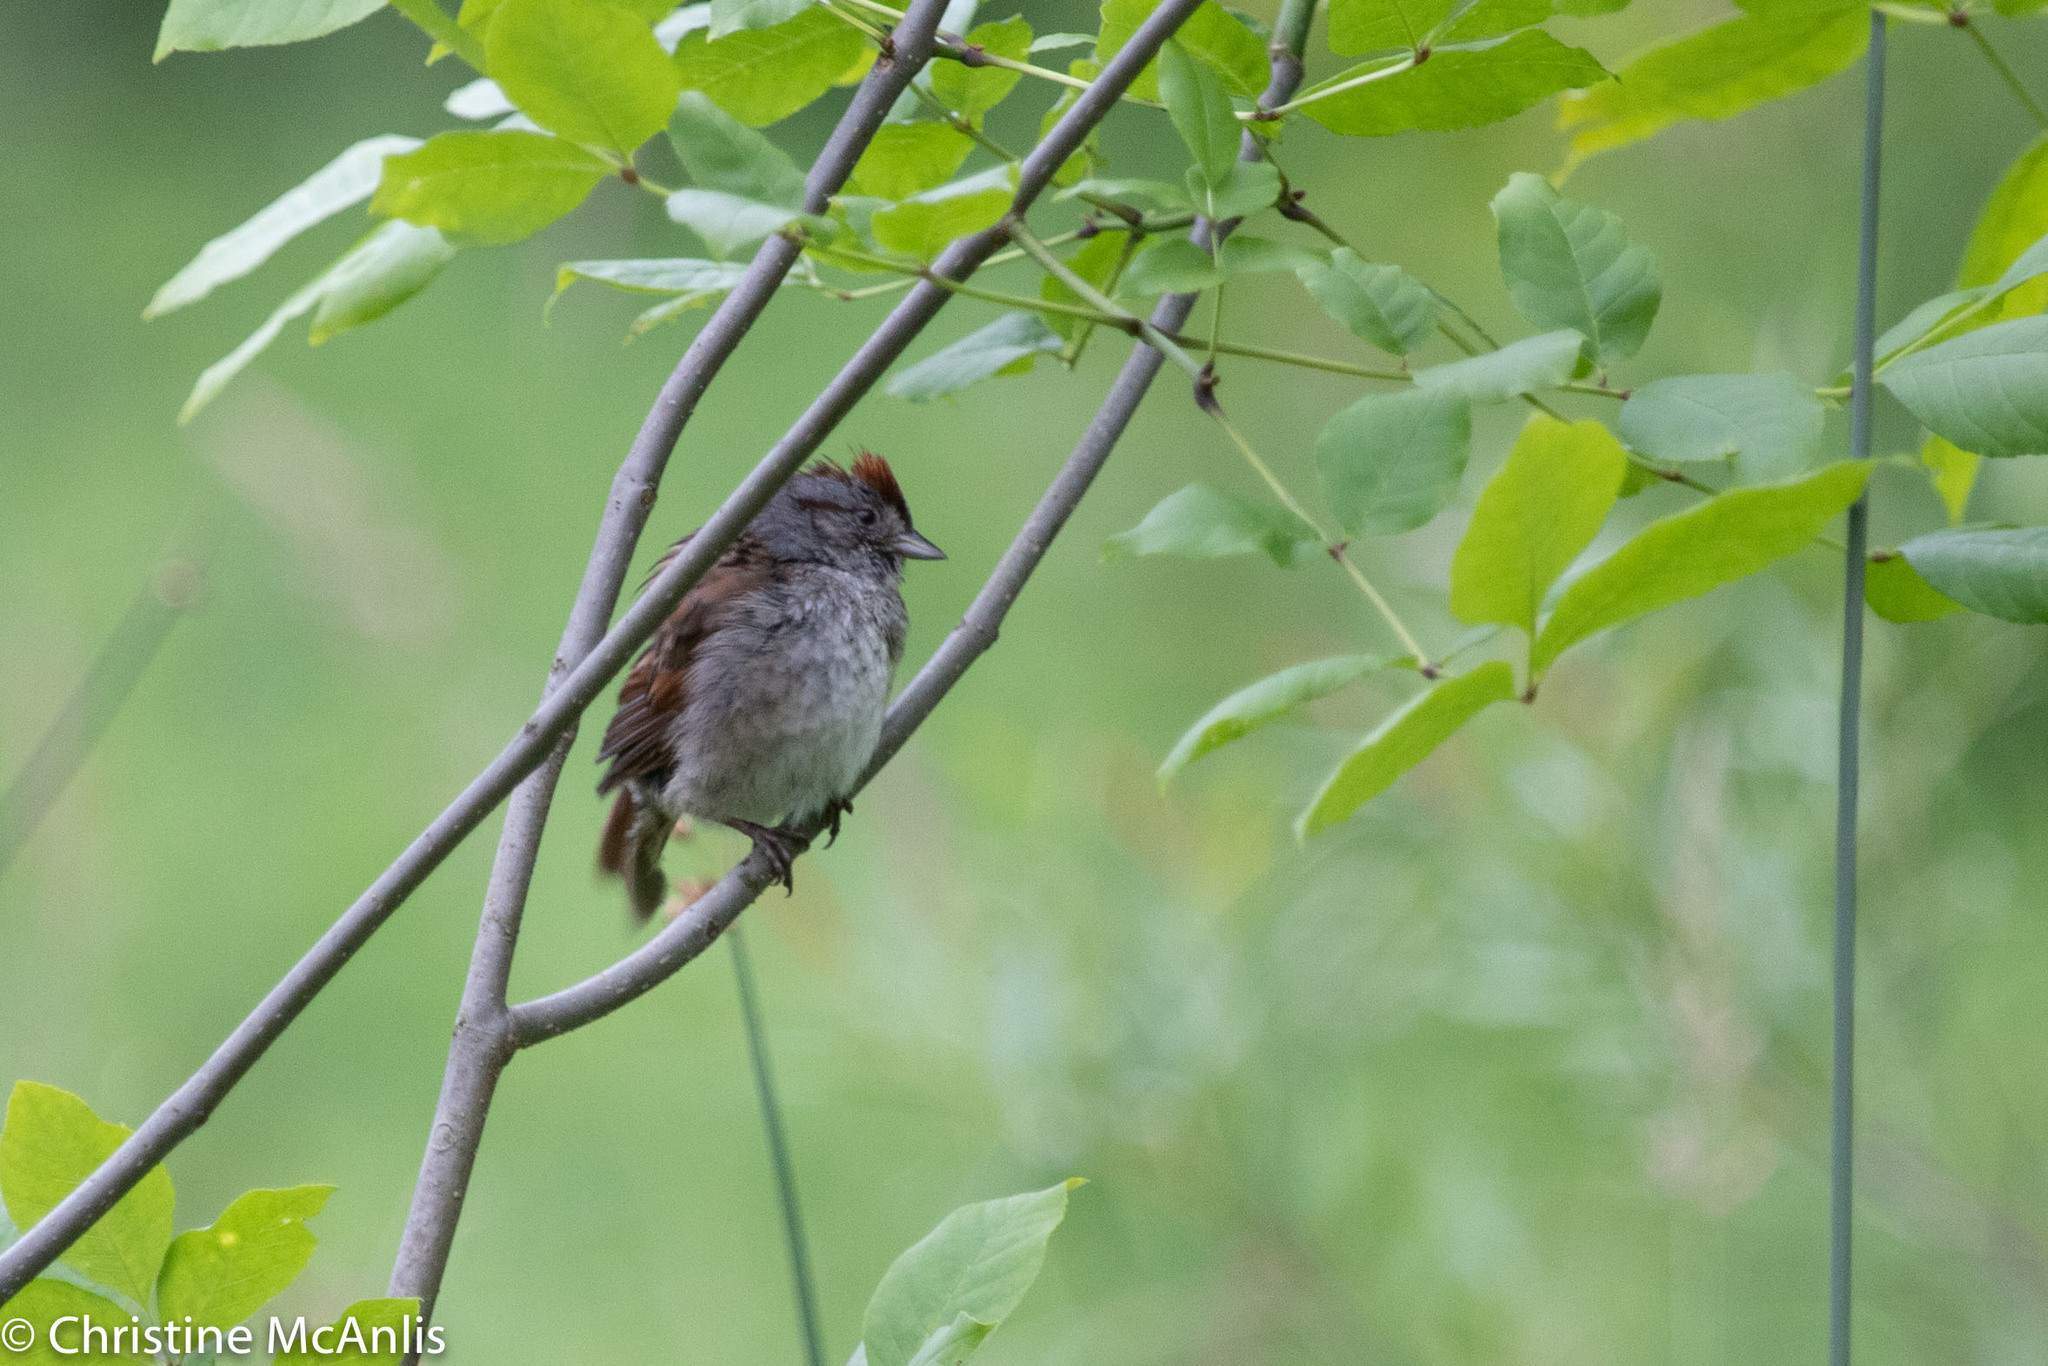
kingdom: Animalia
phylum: Chordata
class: Aves
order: Passeriformes
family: Passerellidae
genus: Melospiza
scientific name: Melospiza georgiana
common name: Swamp sparrow
